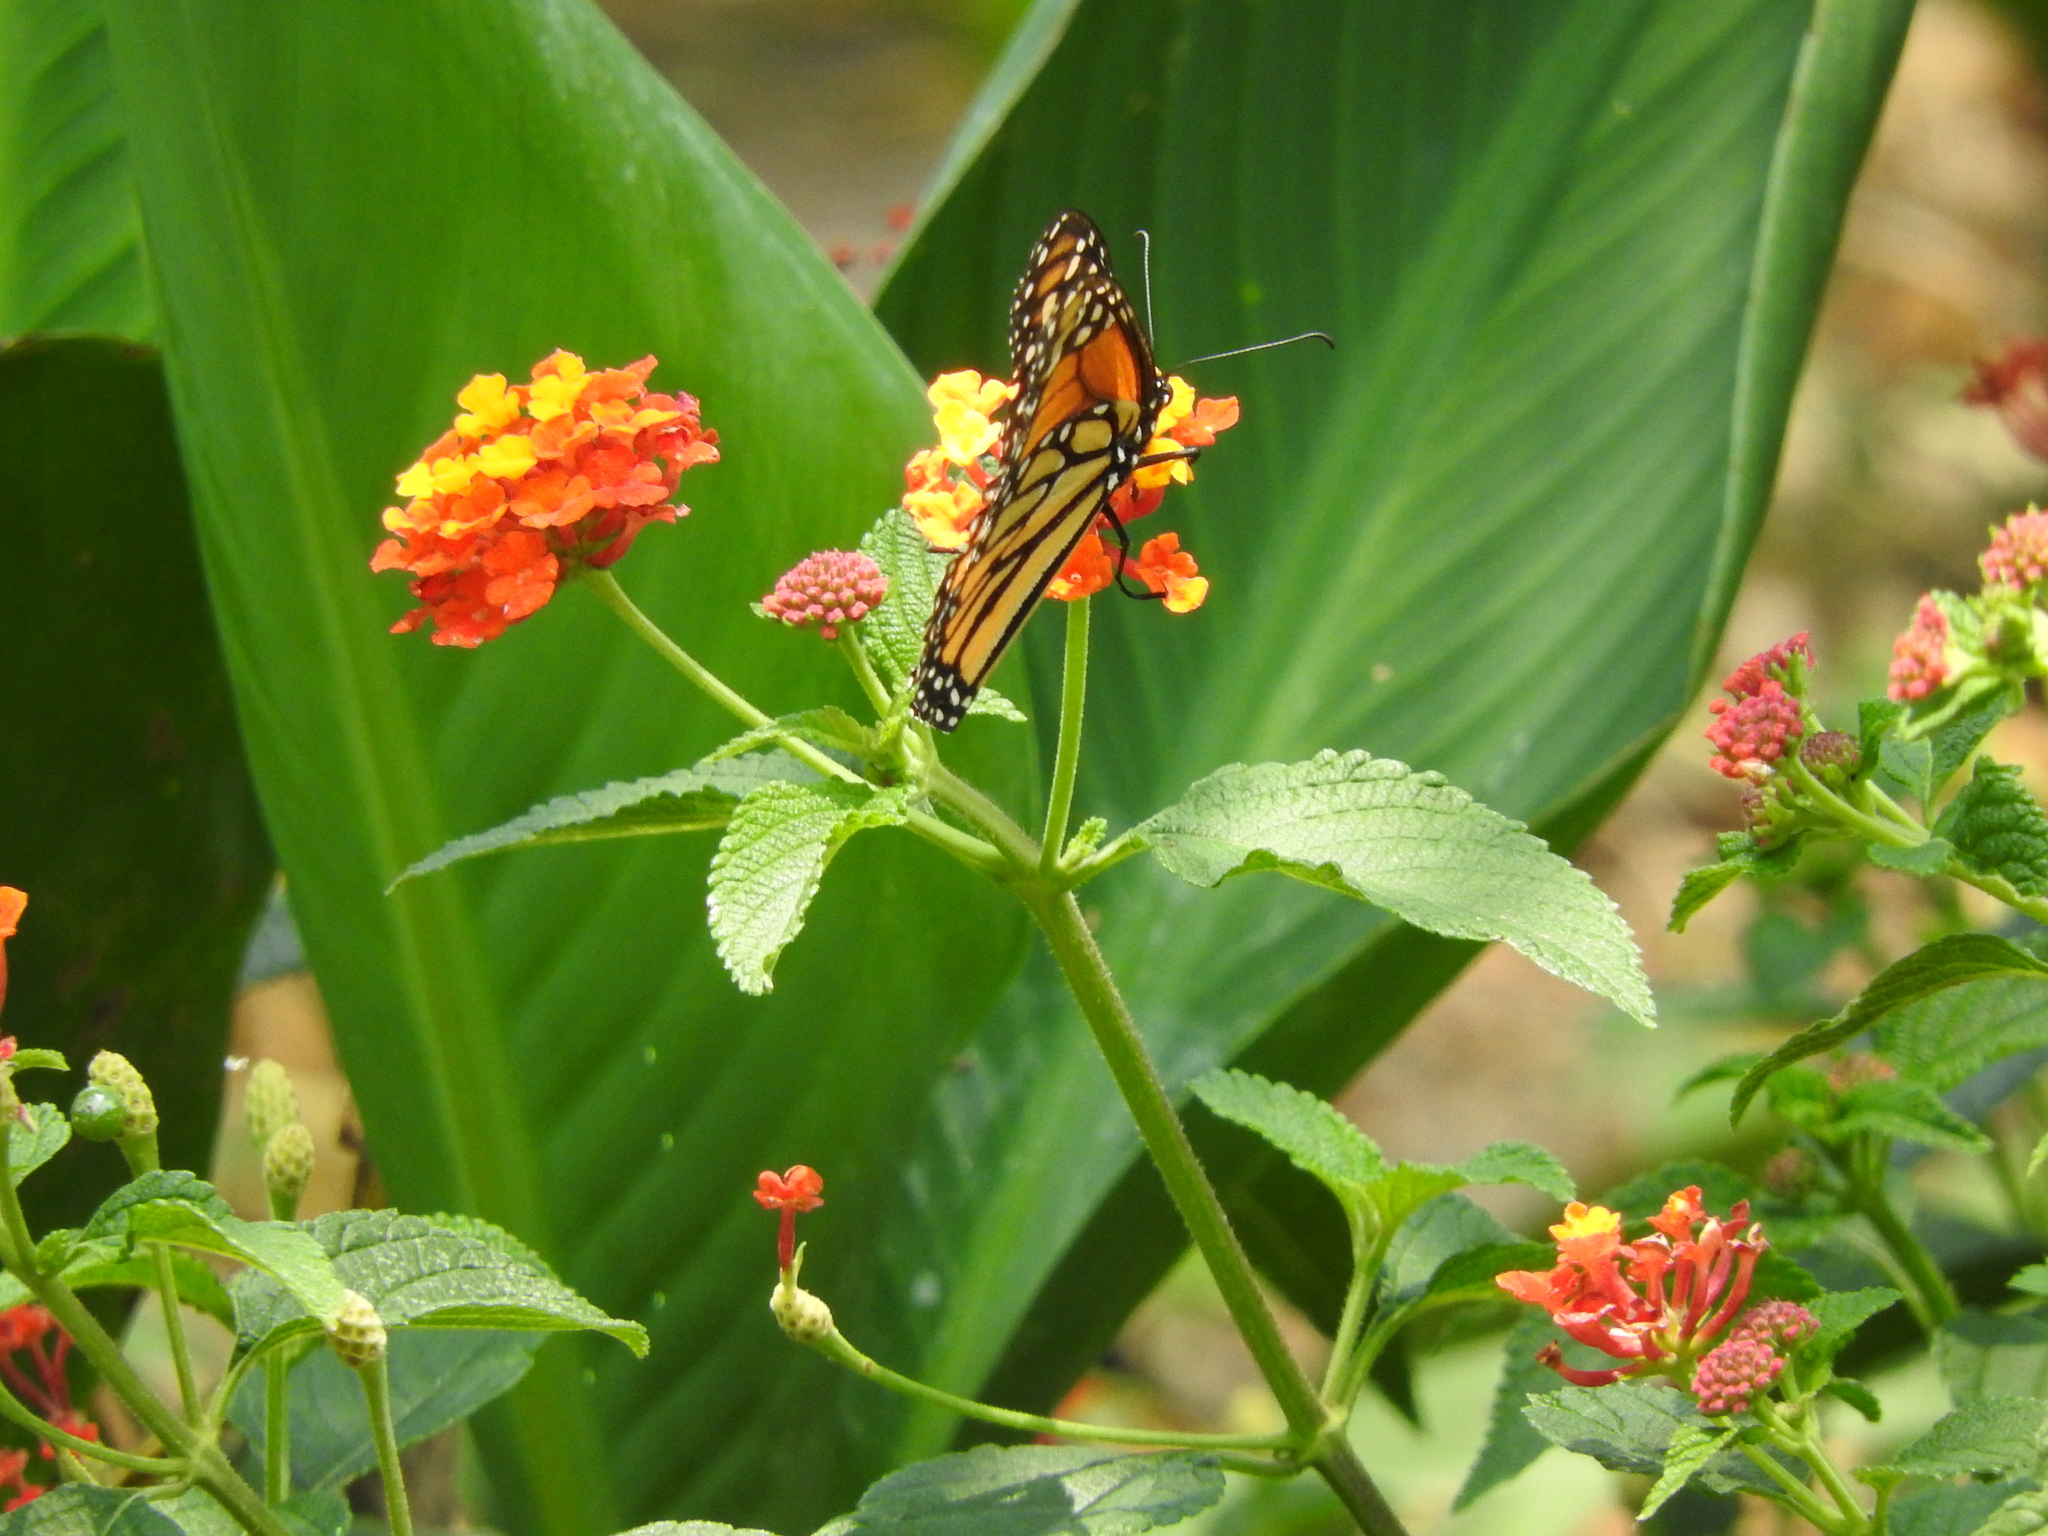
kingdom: Animalia
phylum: Arthropoda
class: Insecta
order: Lepidoptera
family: Nymphalidae
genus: Danaus
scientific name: Danaus plexippus
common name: Monarch
